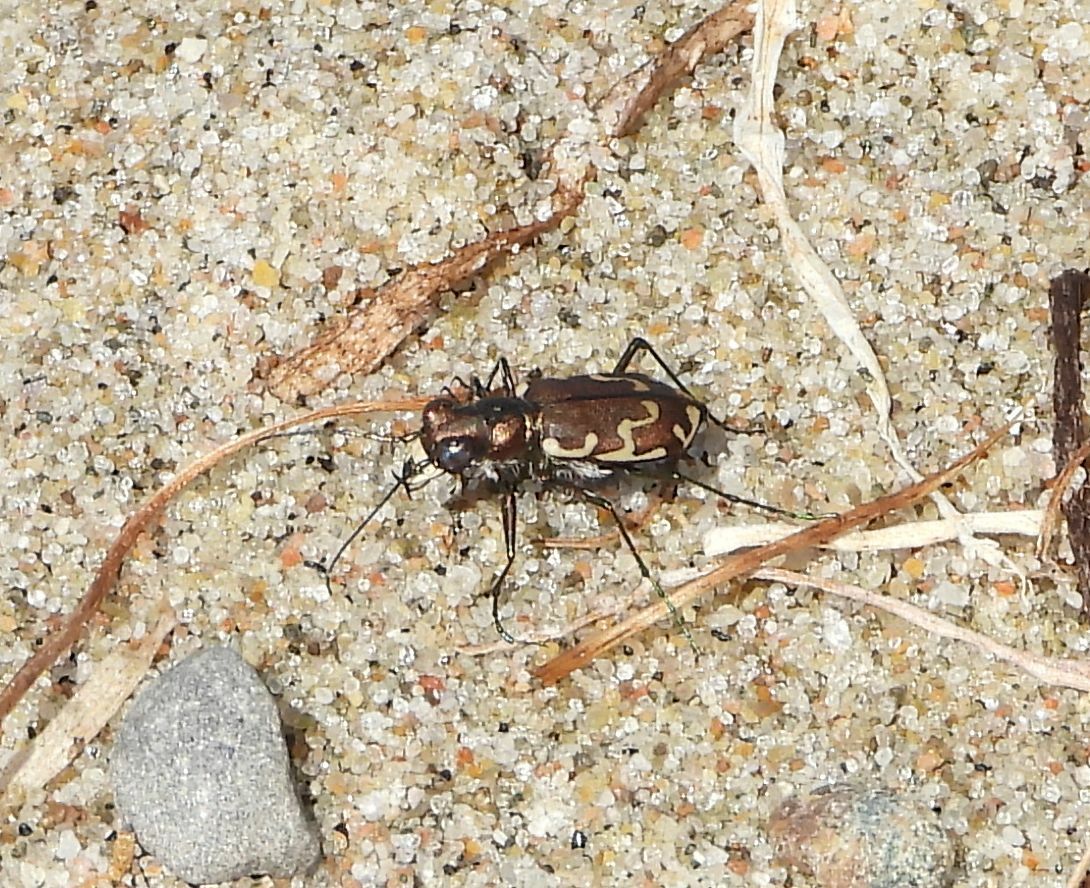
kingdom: Animalia
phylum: Arthropoda
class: Insecta
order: Coleoptera
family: Carabidae
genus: Cicindela
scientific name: Cicindela repanda
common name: Bronzed tiger beetle
